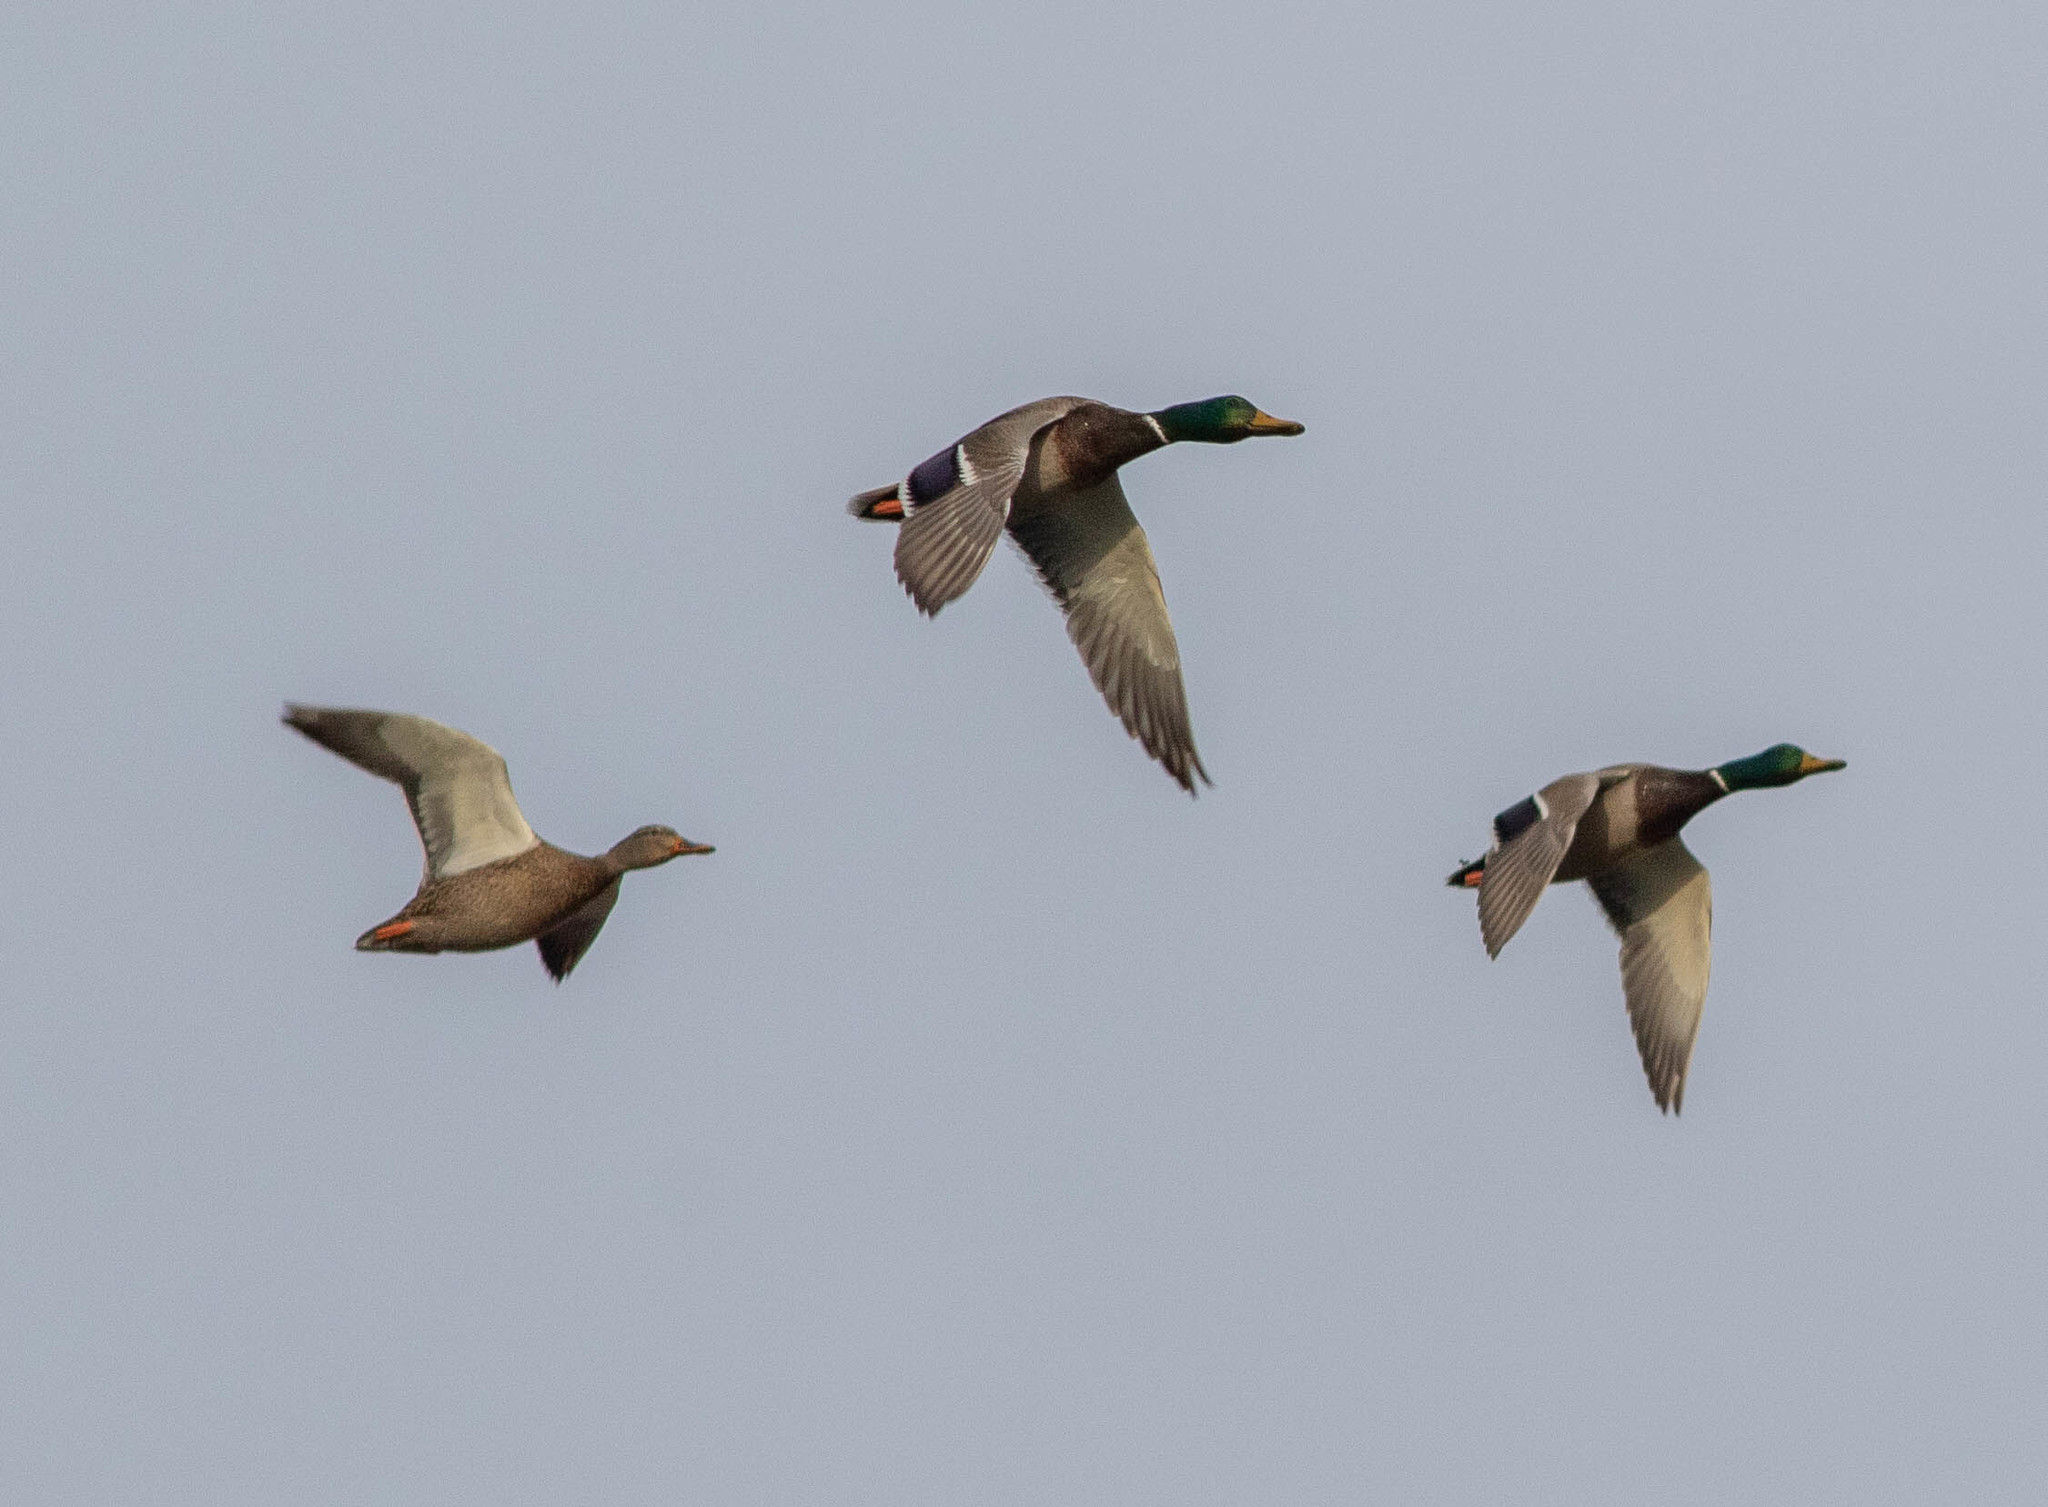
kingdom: Animalia
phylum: Chordata
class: Aves
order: Anseriformes
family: Anatidae
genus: Anas
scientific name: Anas platyrhynchos
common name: Mallard
